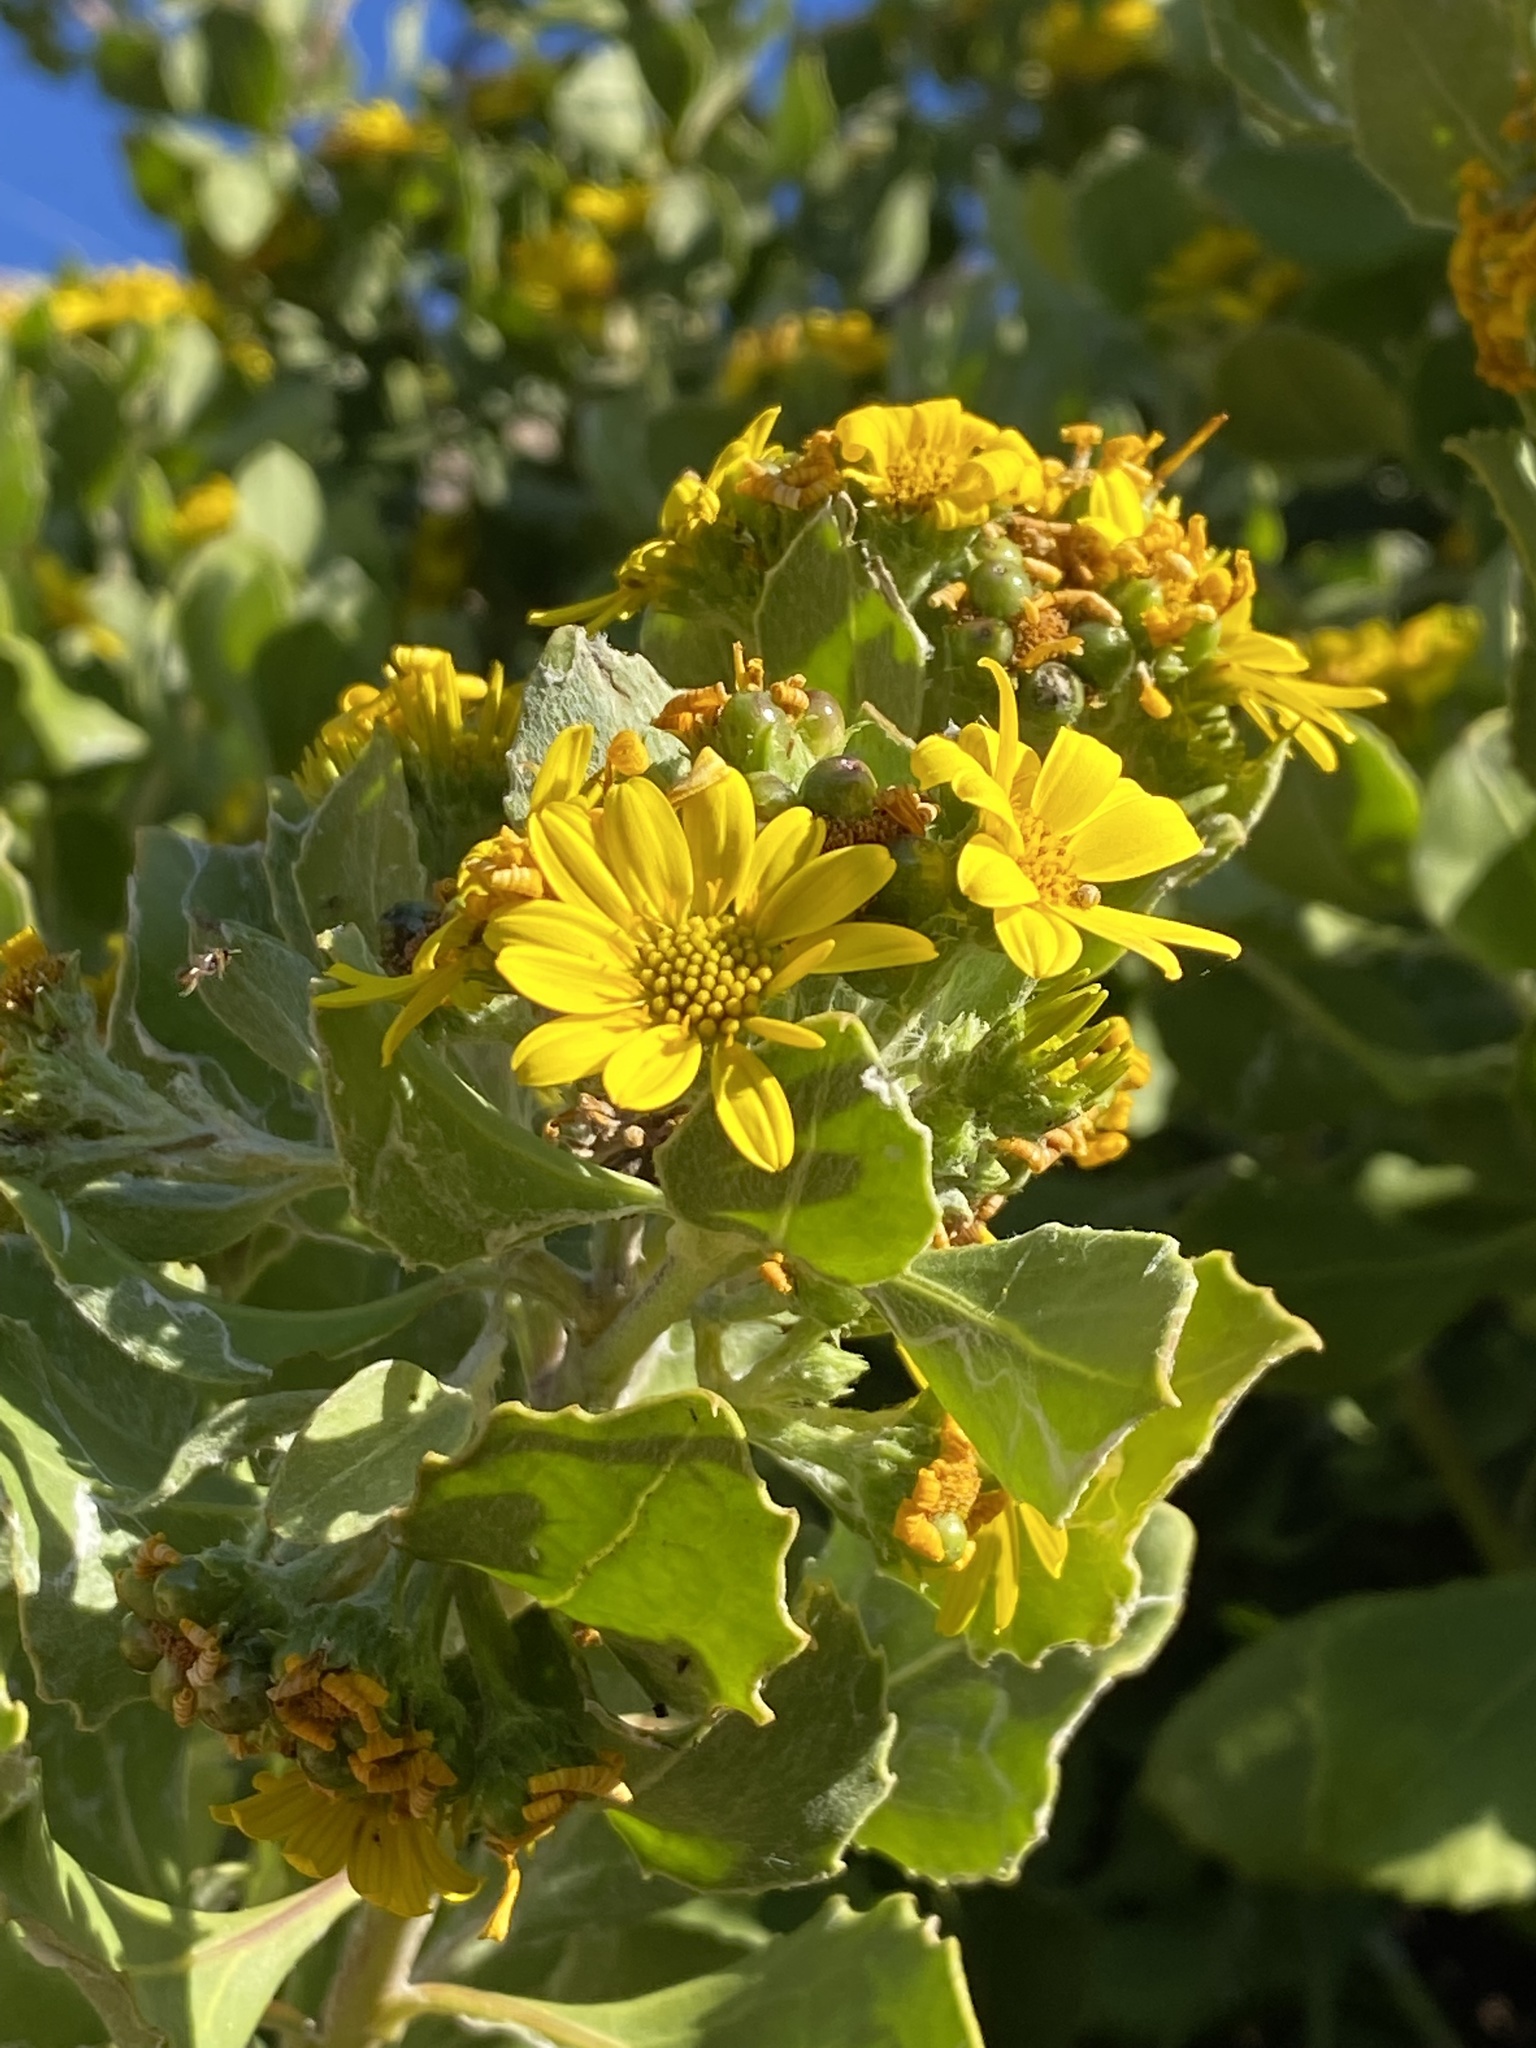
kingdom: Plantae
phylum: Tracheophyta
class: Magnoliopsida
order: Asterales
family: Asteraceae
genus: Osteospermum
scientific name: Osteospermum moniliferum
